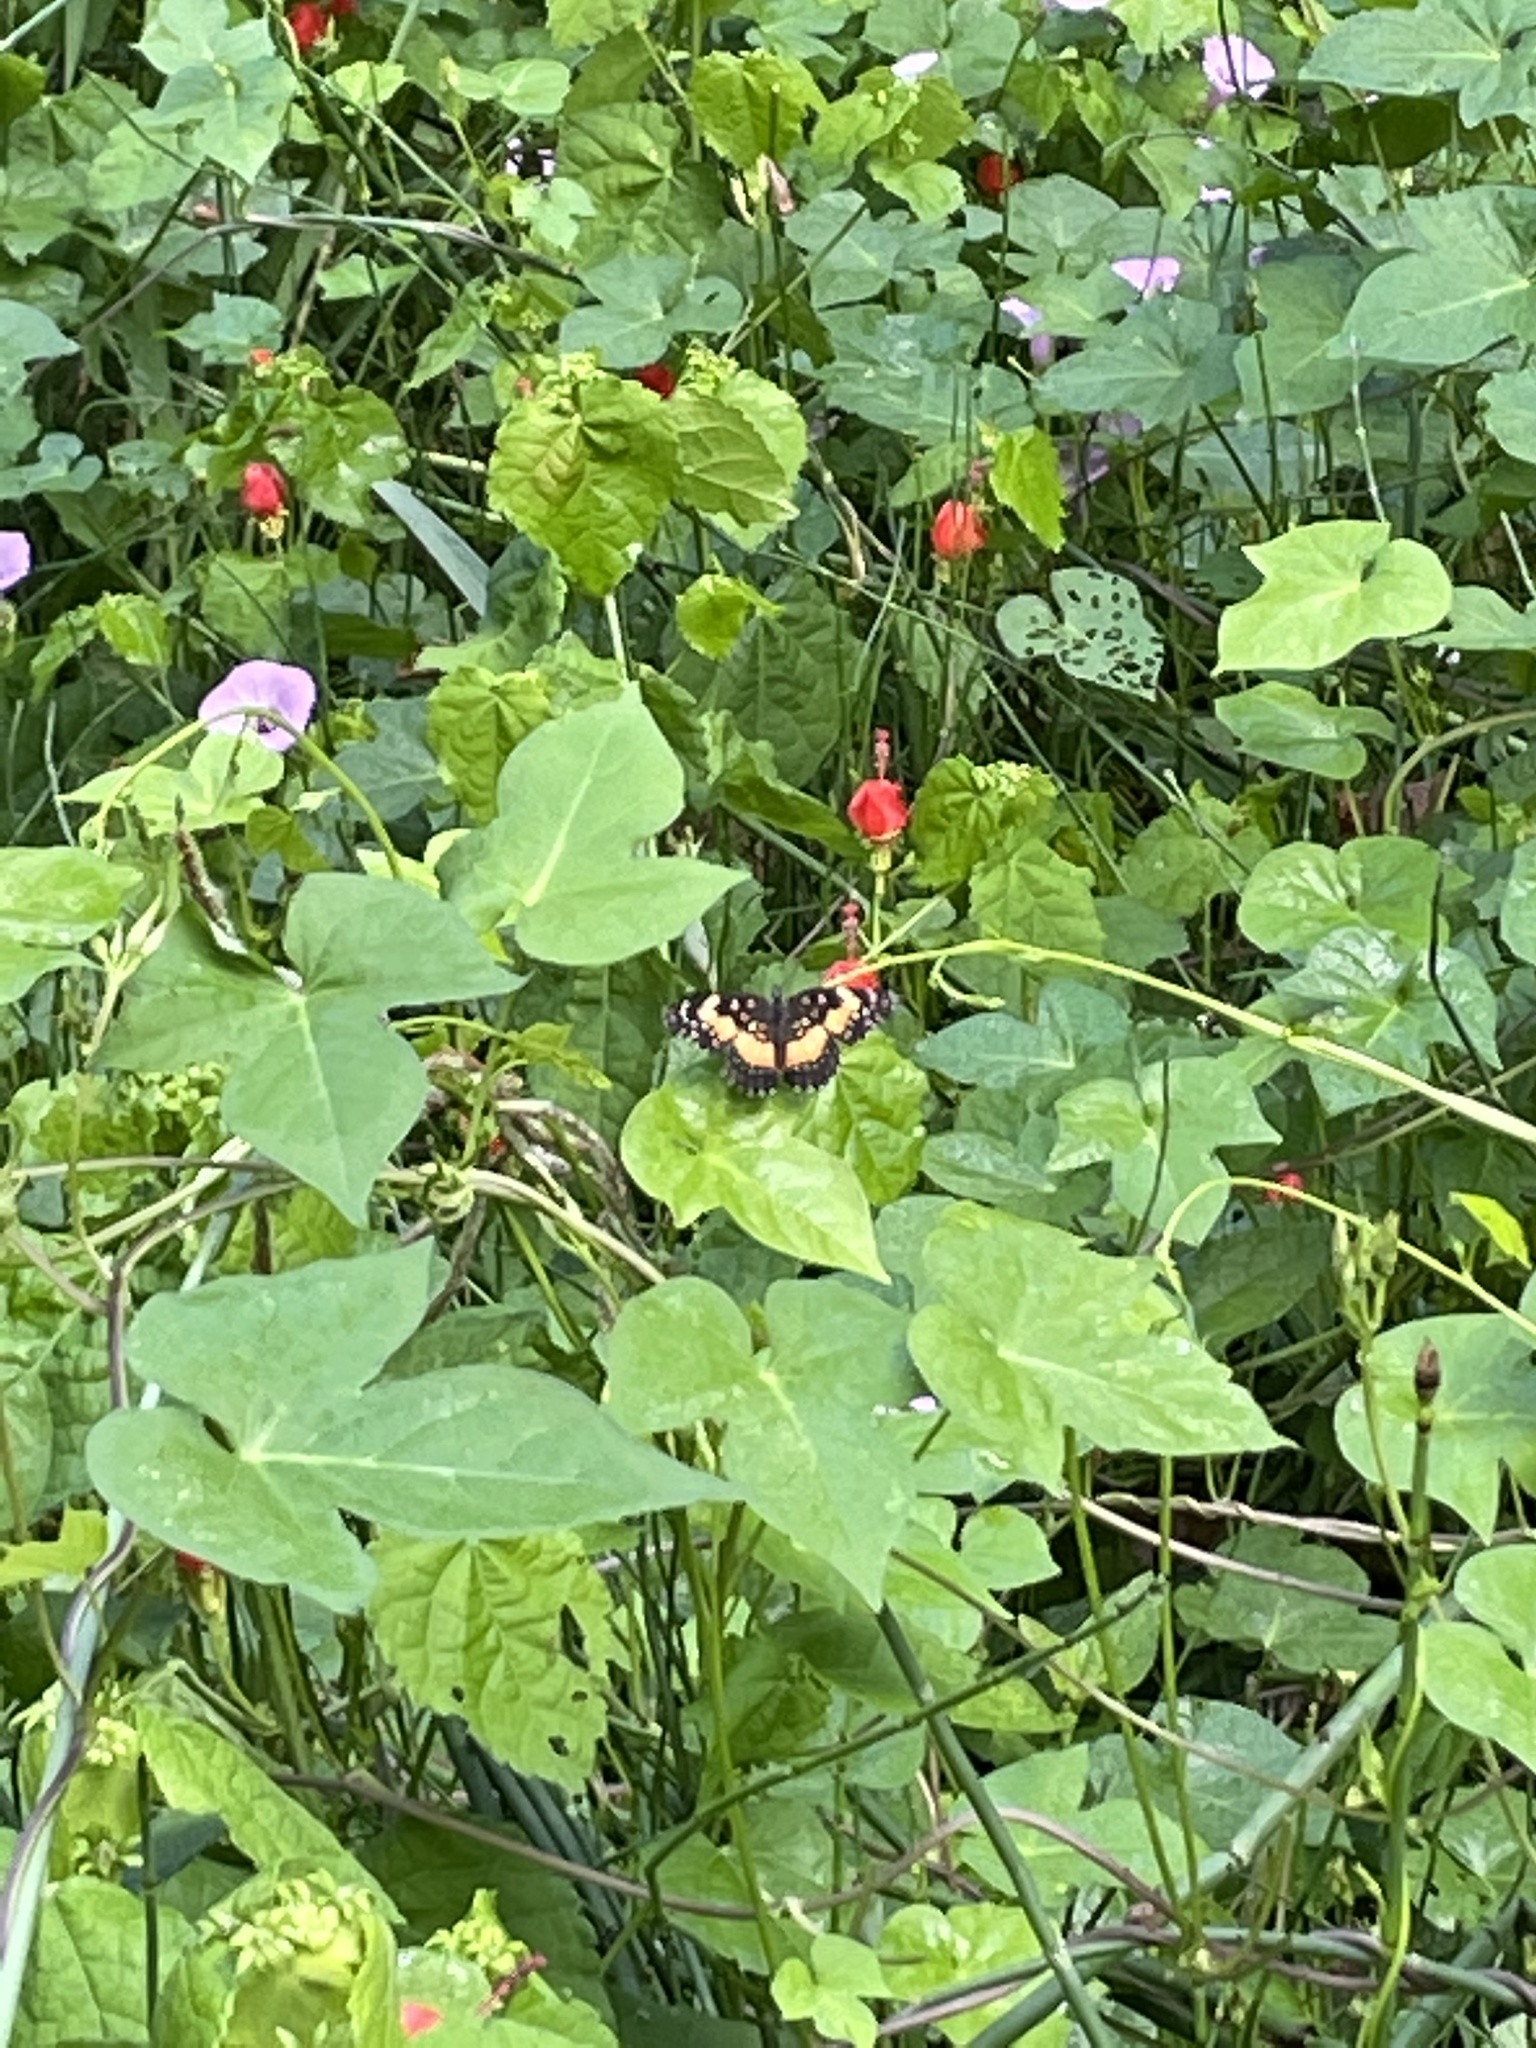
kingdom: Animalia
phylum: Arthropoda
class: Insecta
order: Lepidoptera
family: Nymphalidae
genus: Chlosyne
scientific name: Chlosyne lacinia
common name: Bordered patch
